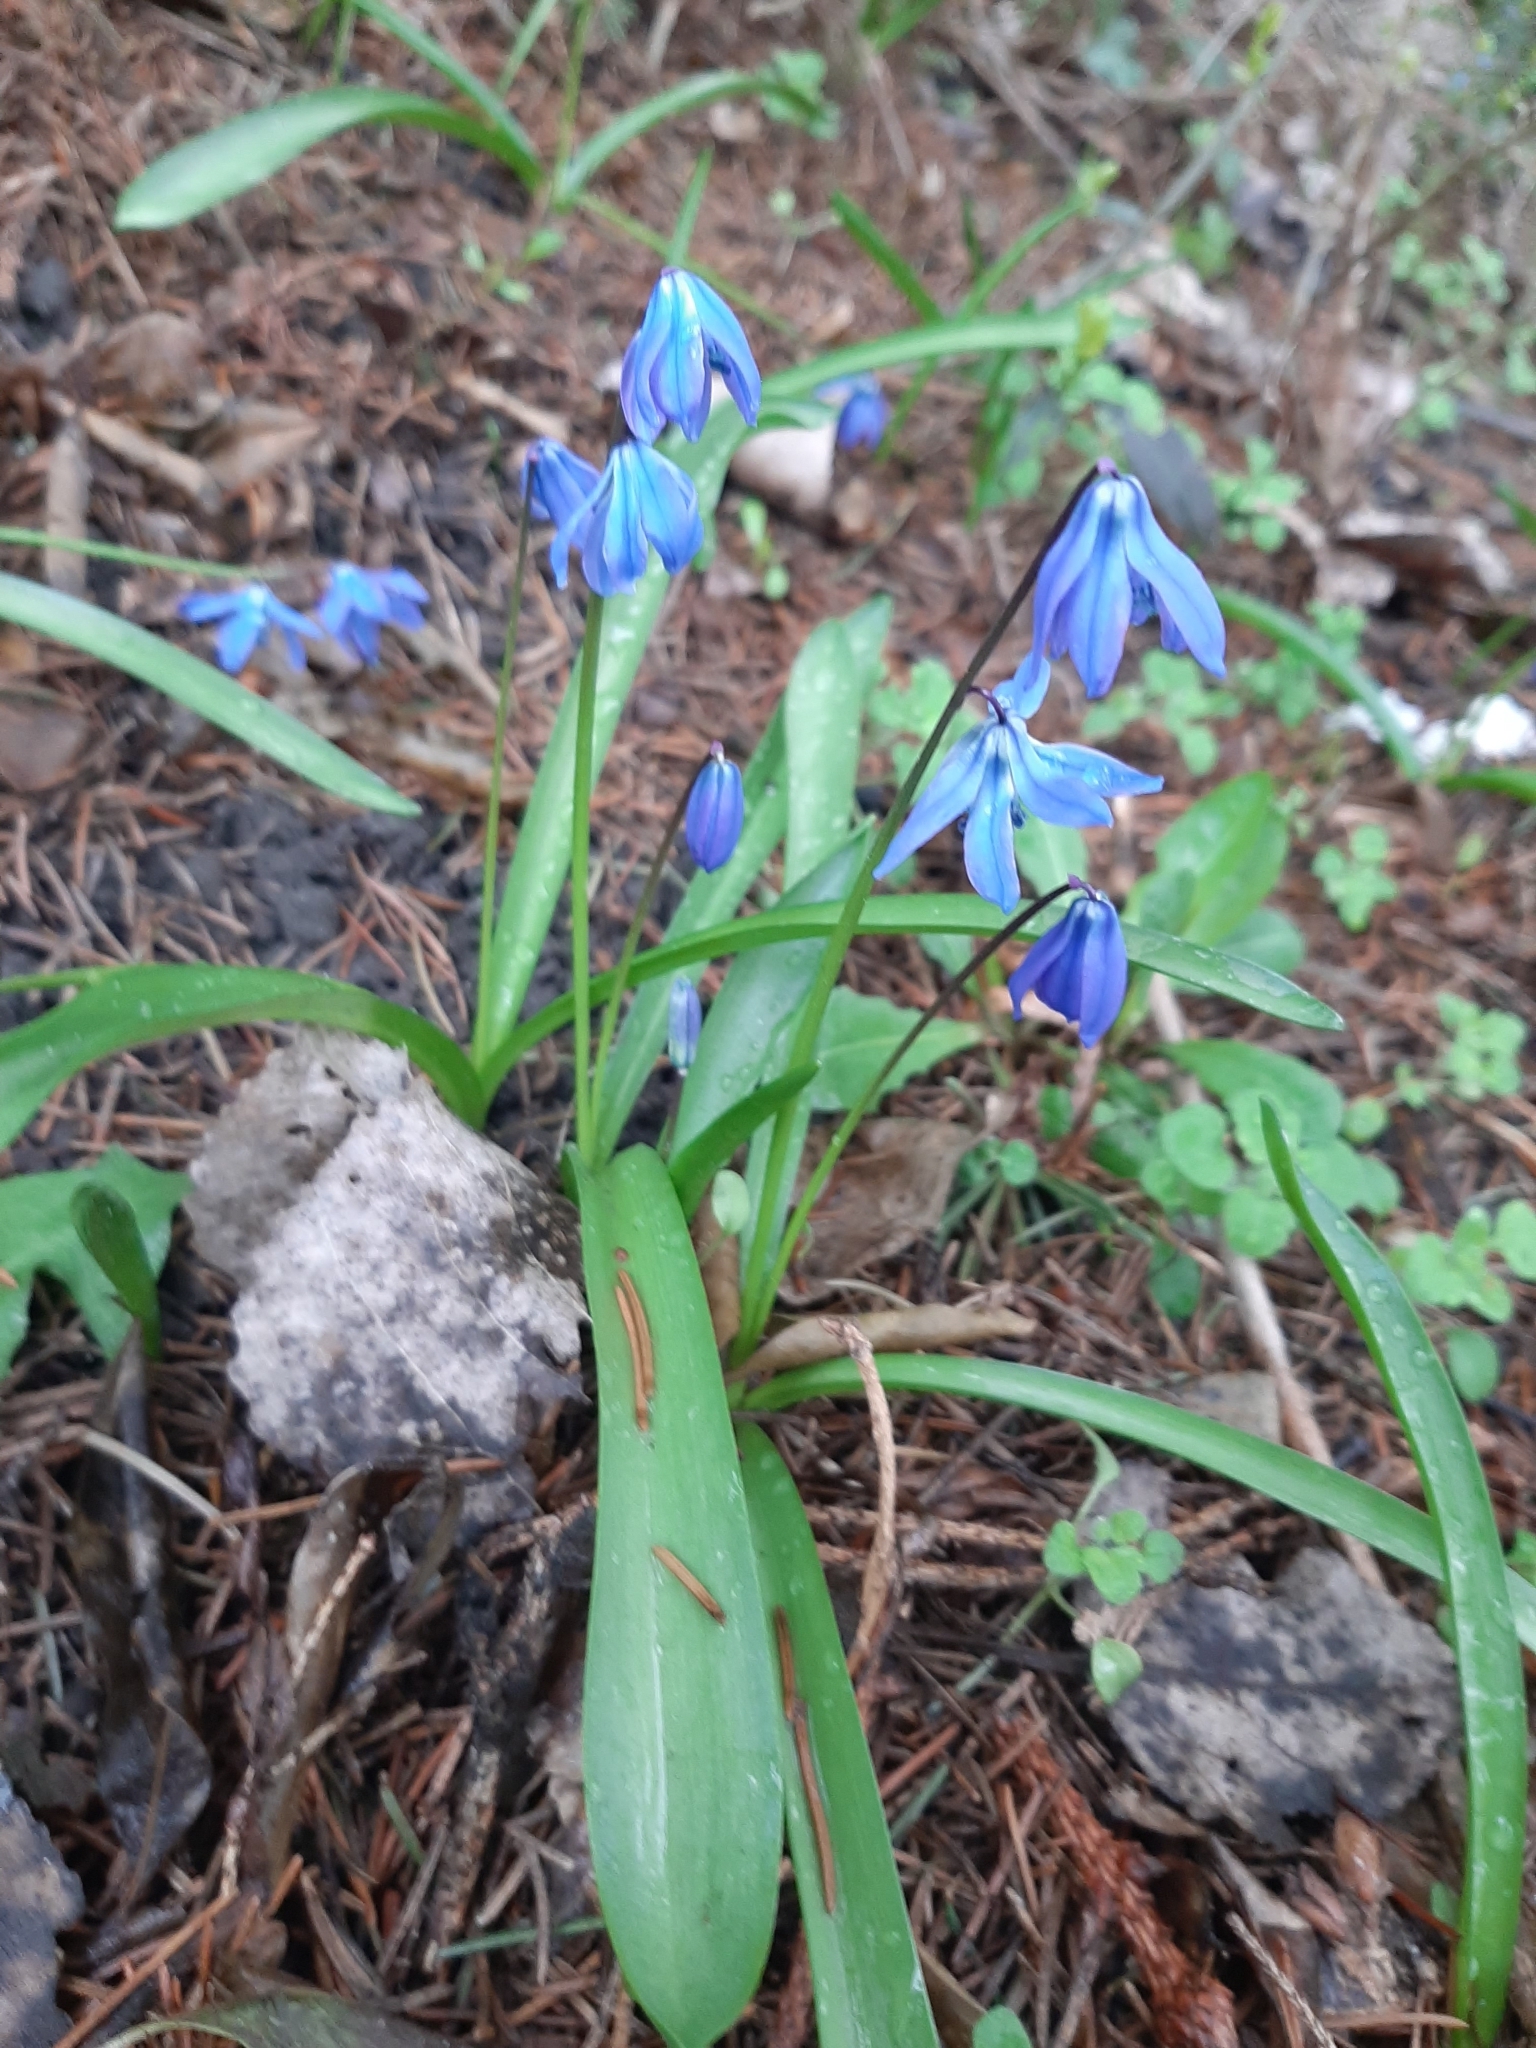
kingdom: Plantae
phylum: Tracheophyta
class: Liliopsida
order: Asparagales
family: Asparagaceae
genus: Scilla
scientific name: Scilla siberica
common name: Siberian squill
